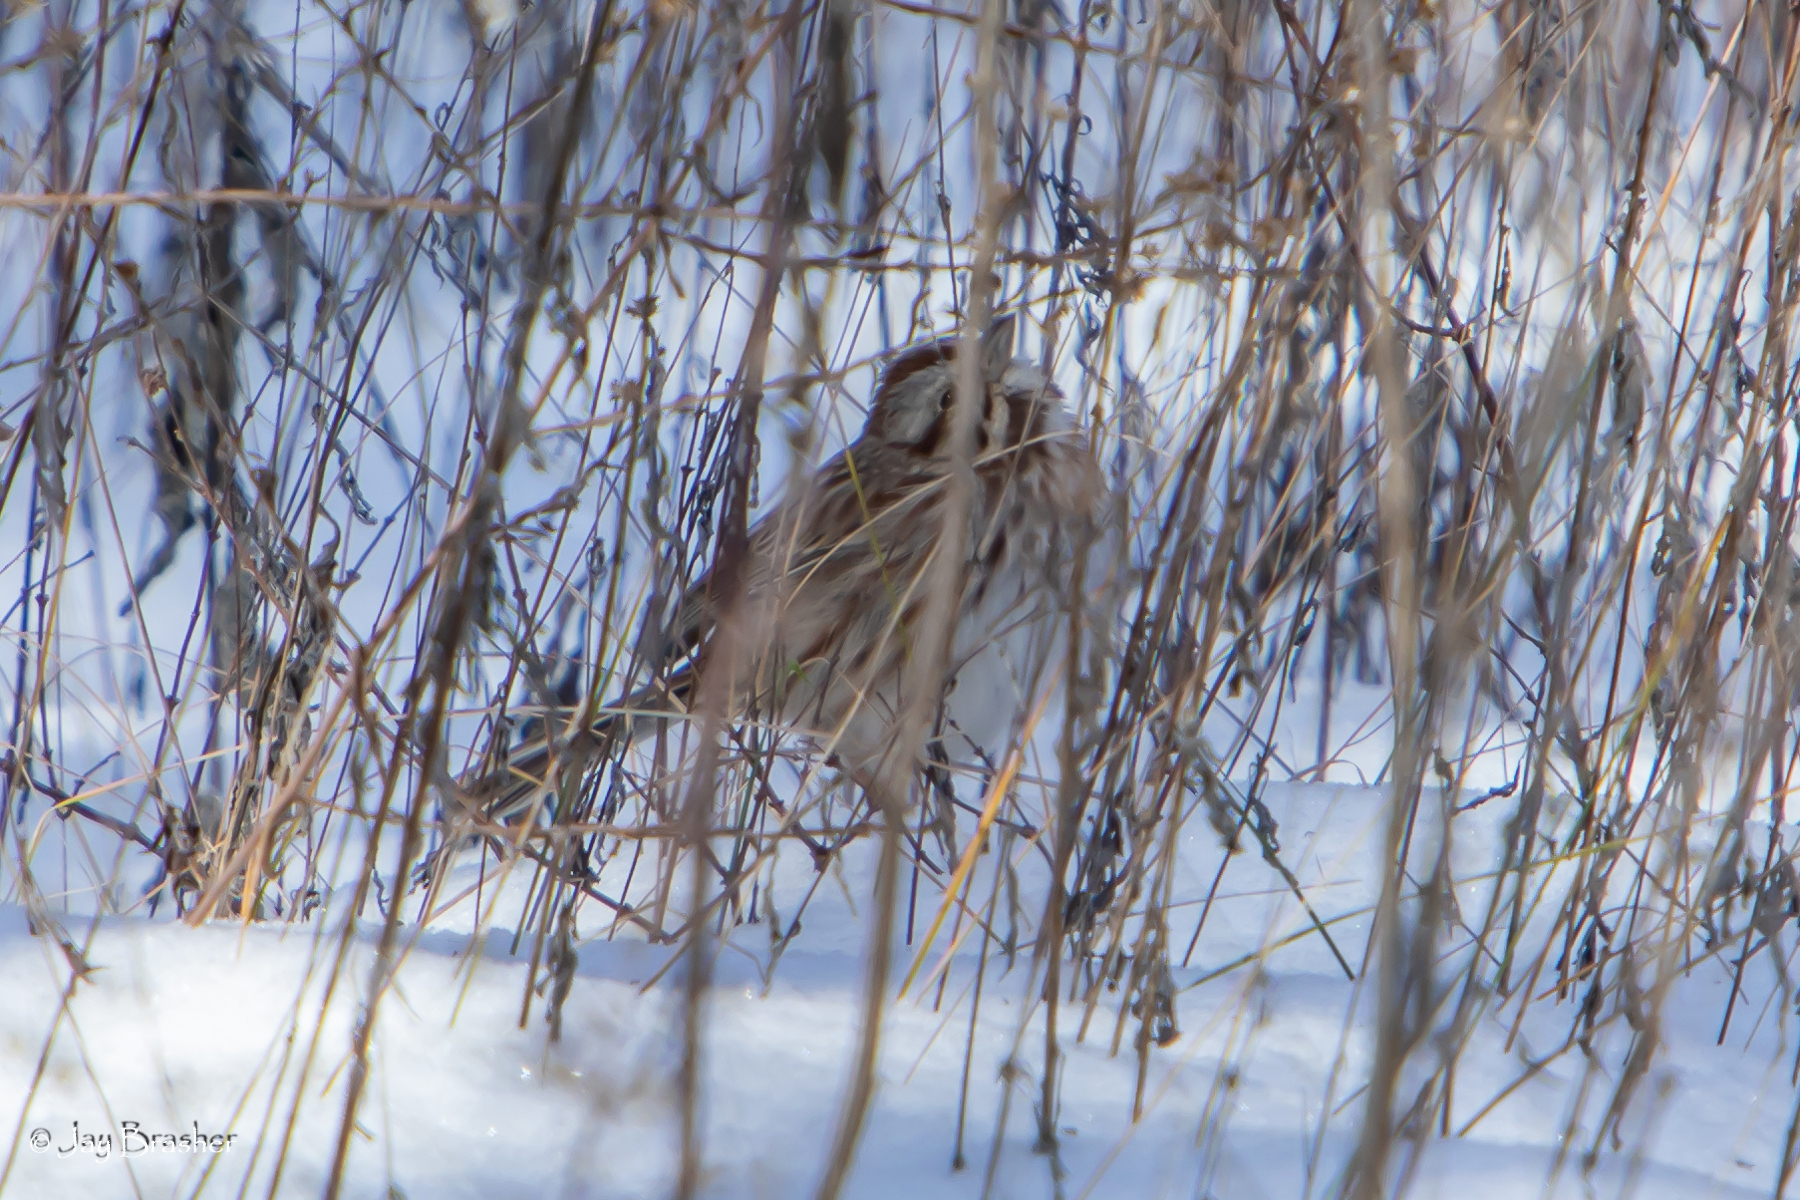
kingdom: Animalia
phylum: Chordata
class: Aves
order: Passeriformes
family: Passerellidae
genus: Melospiza
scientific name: Melospiza melodia
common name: Song sparrow
